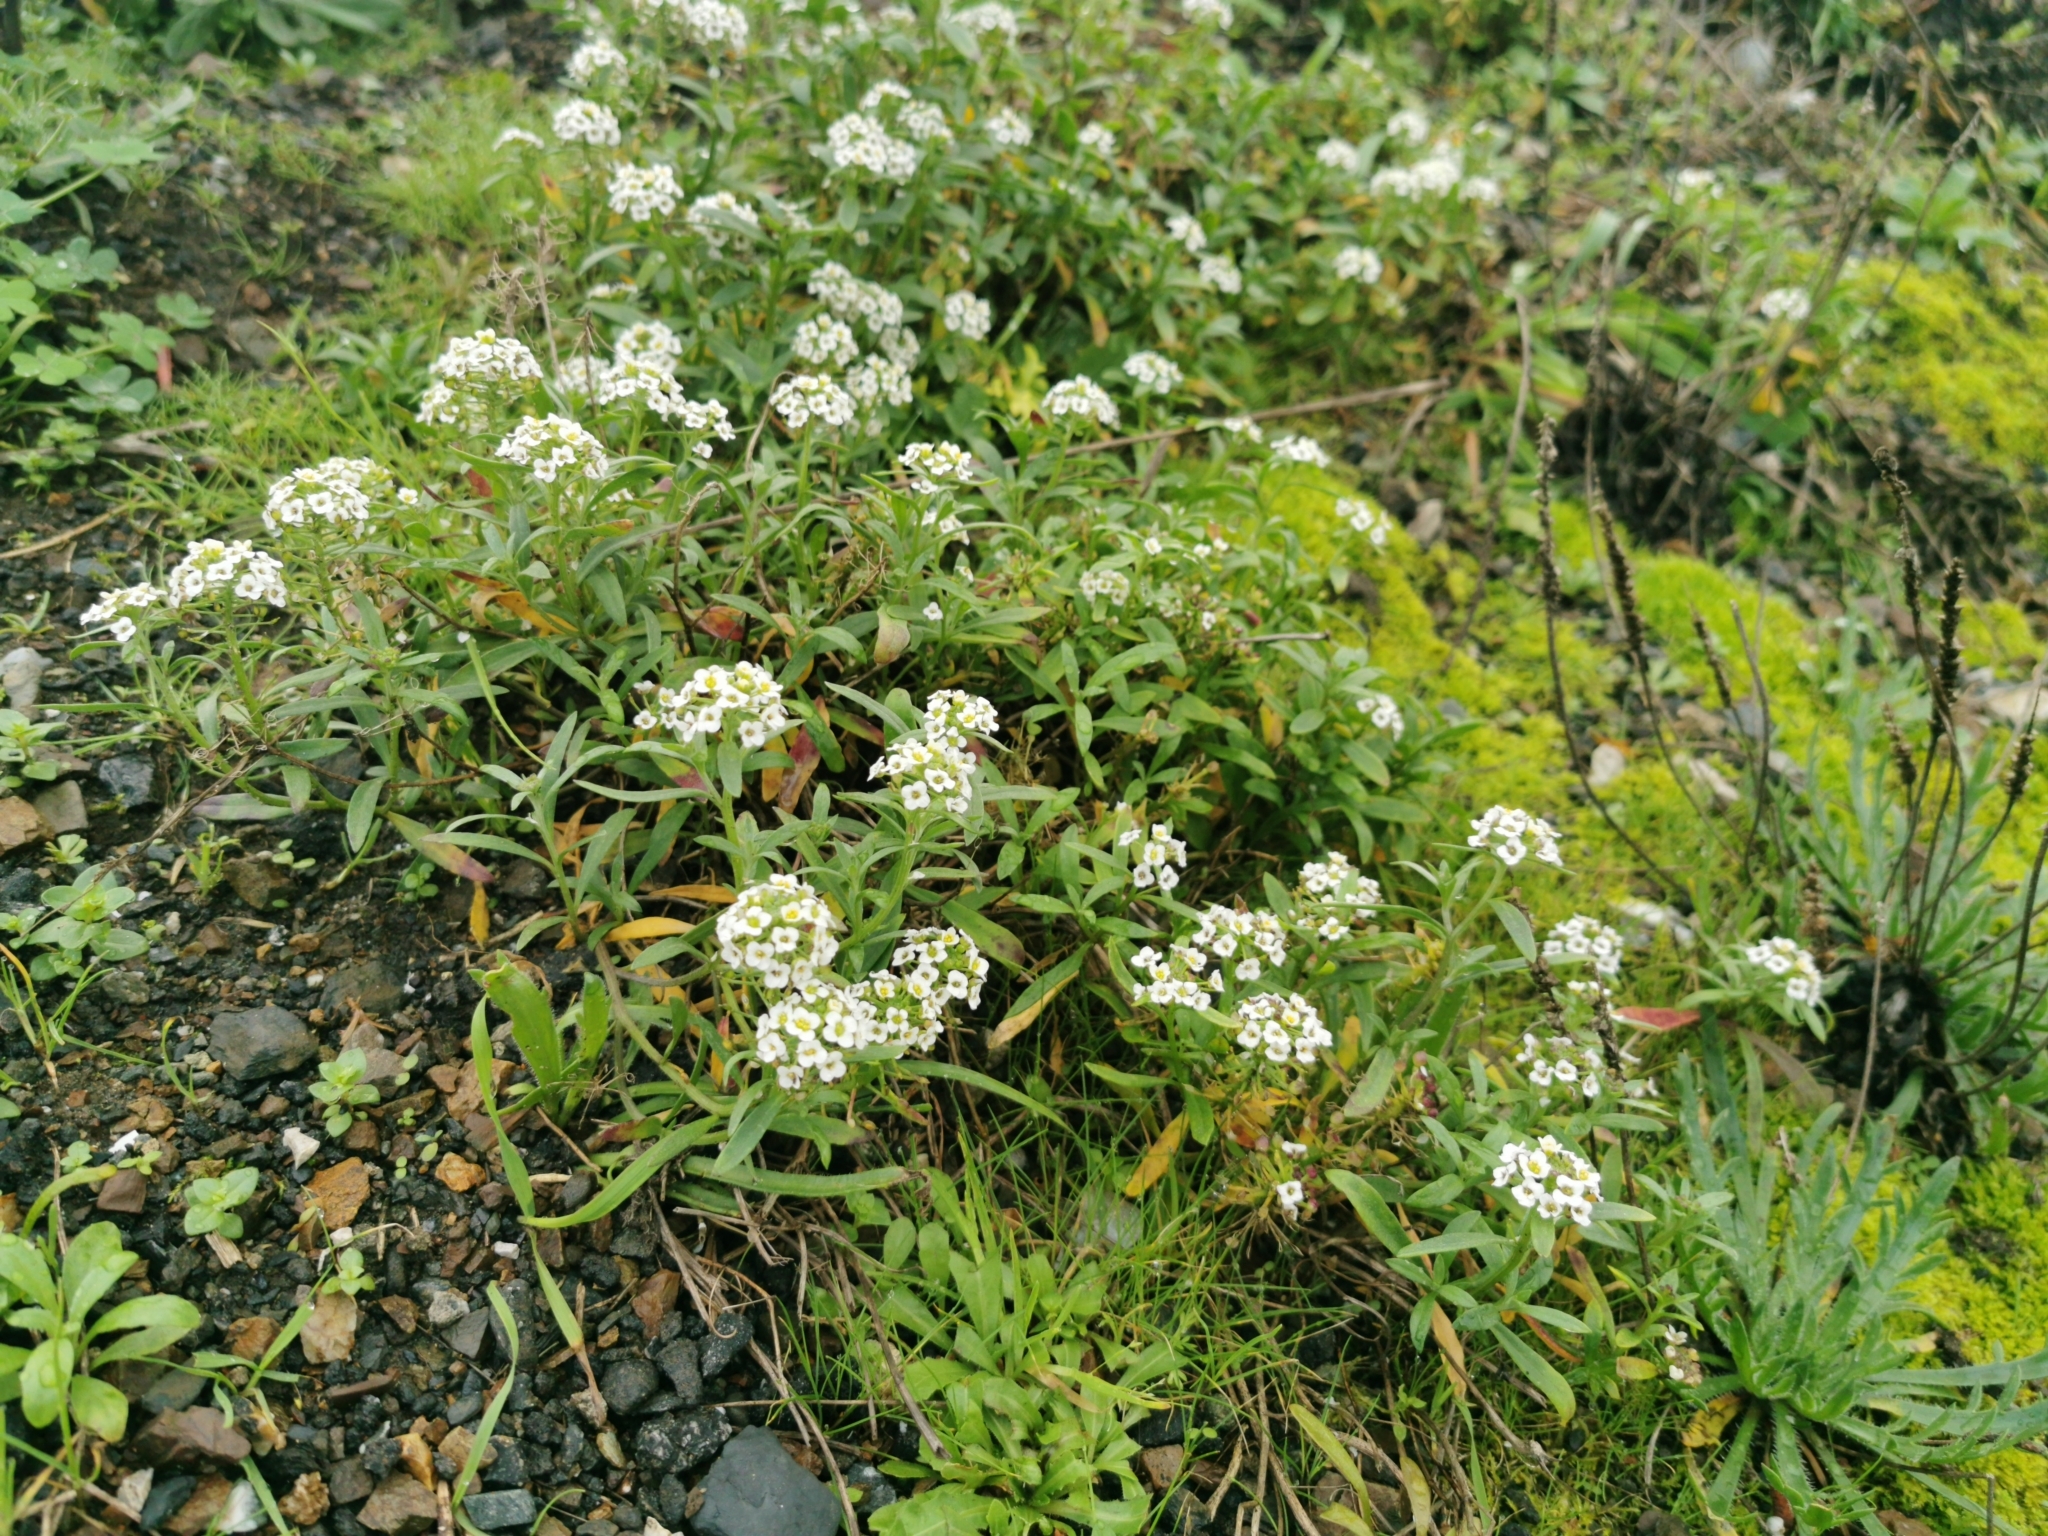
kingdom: Plantae
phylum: Tracheophyta
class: Magnoliopsida
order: Brassicales
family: Brassicaceae
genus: Lobularia
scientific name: Lobularia maritima
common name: Sweet alison
